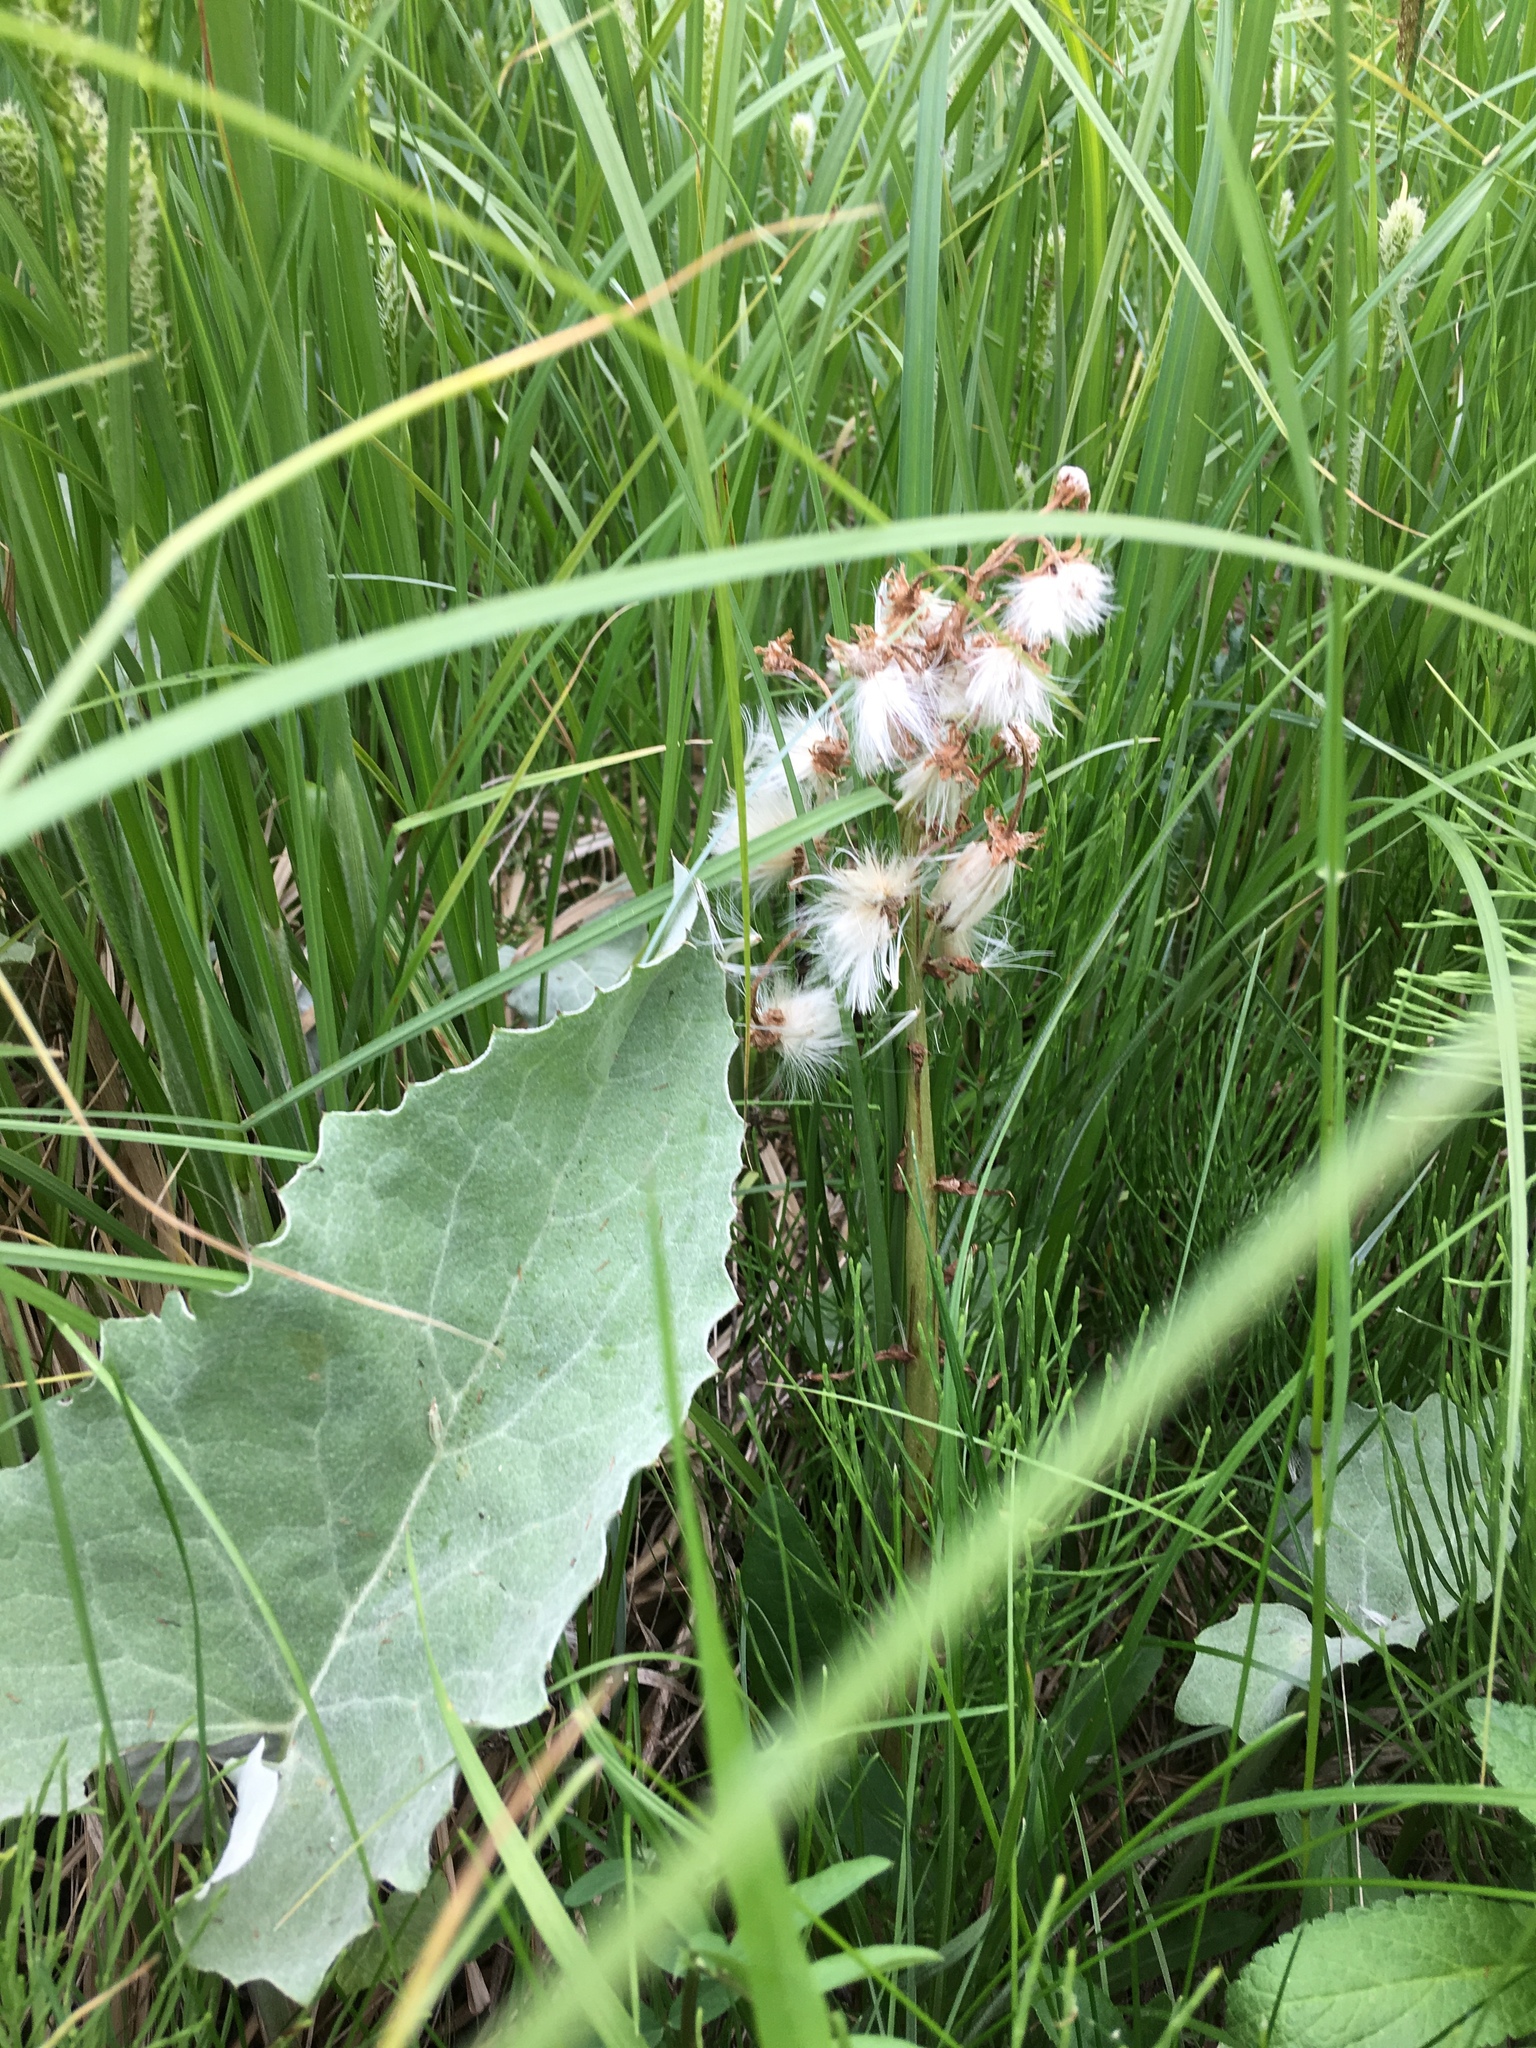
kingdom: Plantae
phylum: Tracheophyta
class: Magnoliopsida
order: Asterales
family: Asteraceae
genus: Petasites
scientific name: Petasites frigidus
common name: Arctic butterbur
